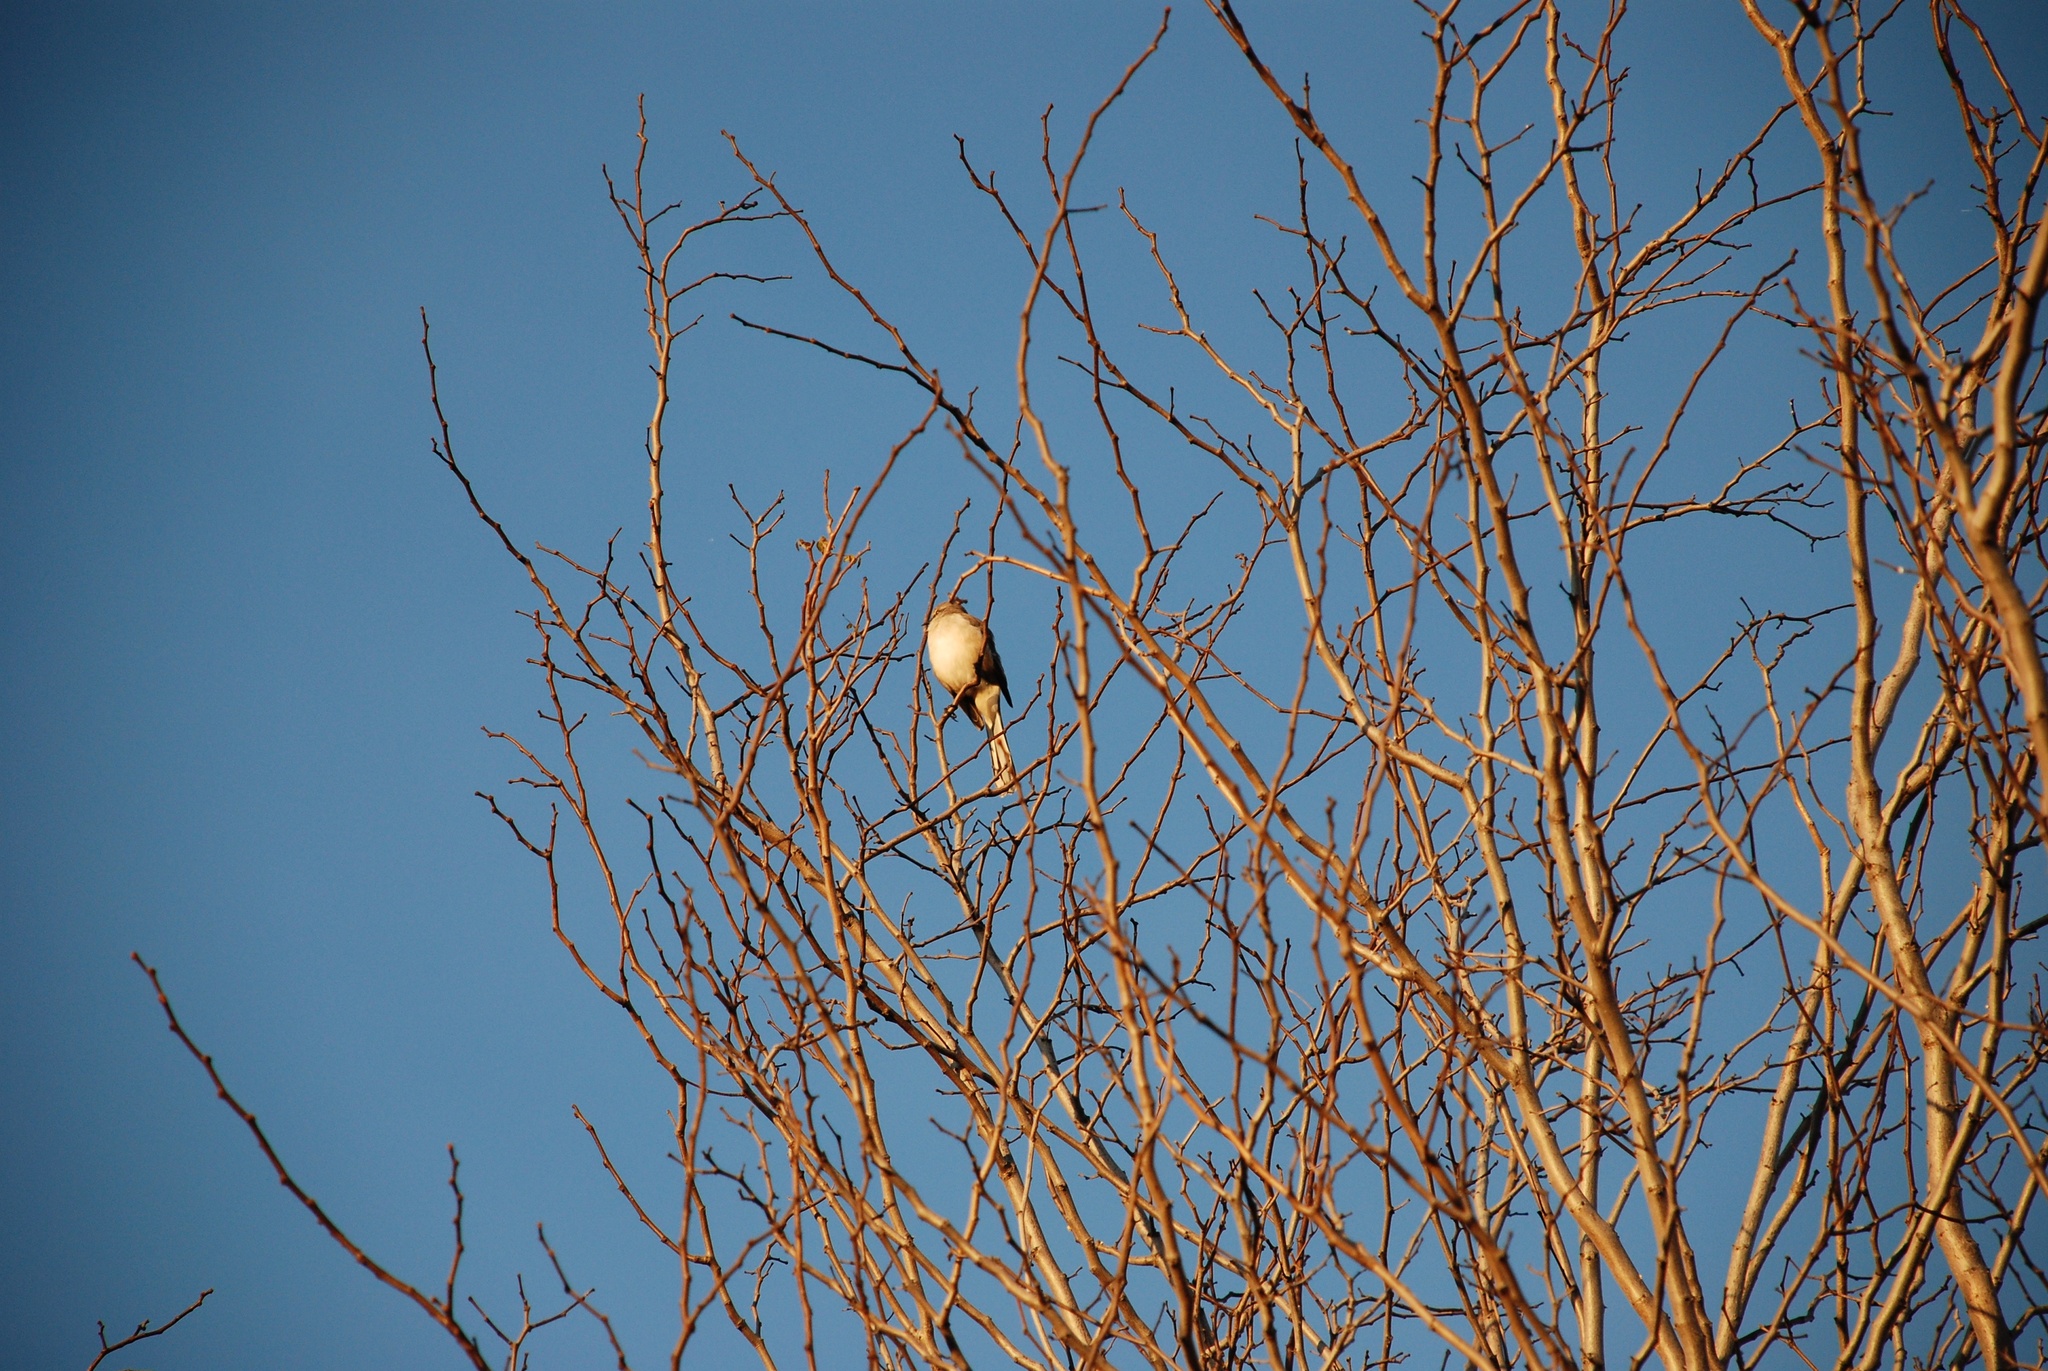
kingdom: Animalia
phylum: Chordata
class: Aves
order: Passeriformes
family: Mimidae
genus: Mimus
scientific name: Mimus polyglottos
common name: Northern mockingbird
